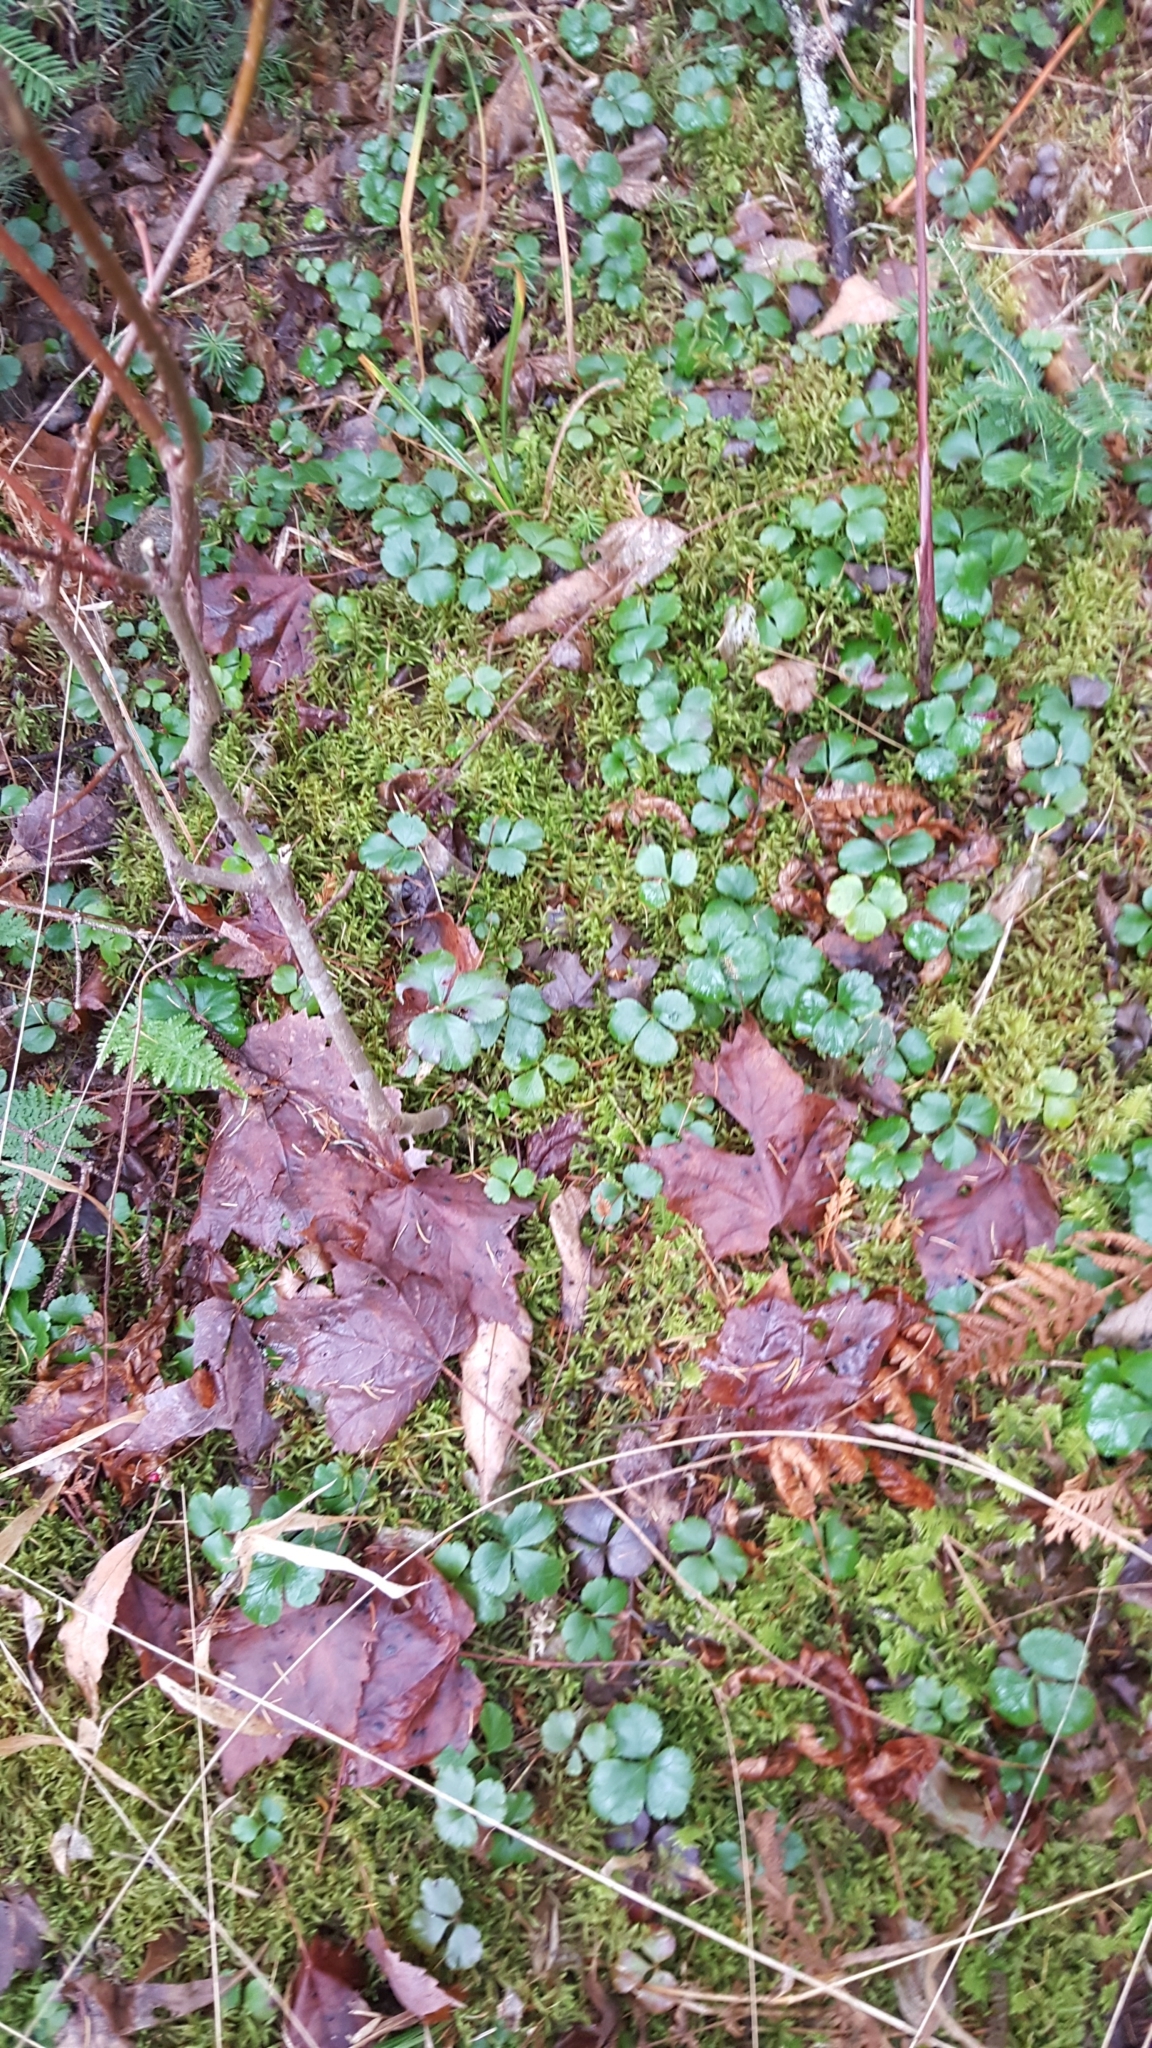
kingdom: Plantae
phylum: Tracheophyta
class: Magnoliopsida
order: Ranunculales
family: Ranunculaceae
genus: Coptis
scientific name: Coptis trifolia
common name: Canker-root
